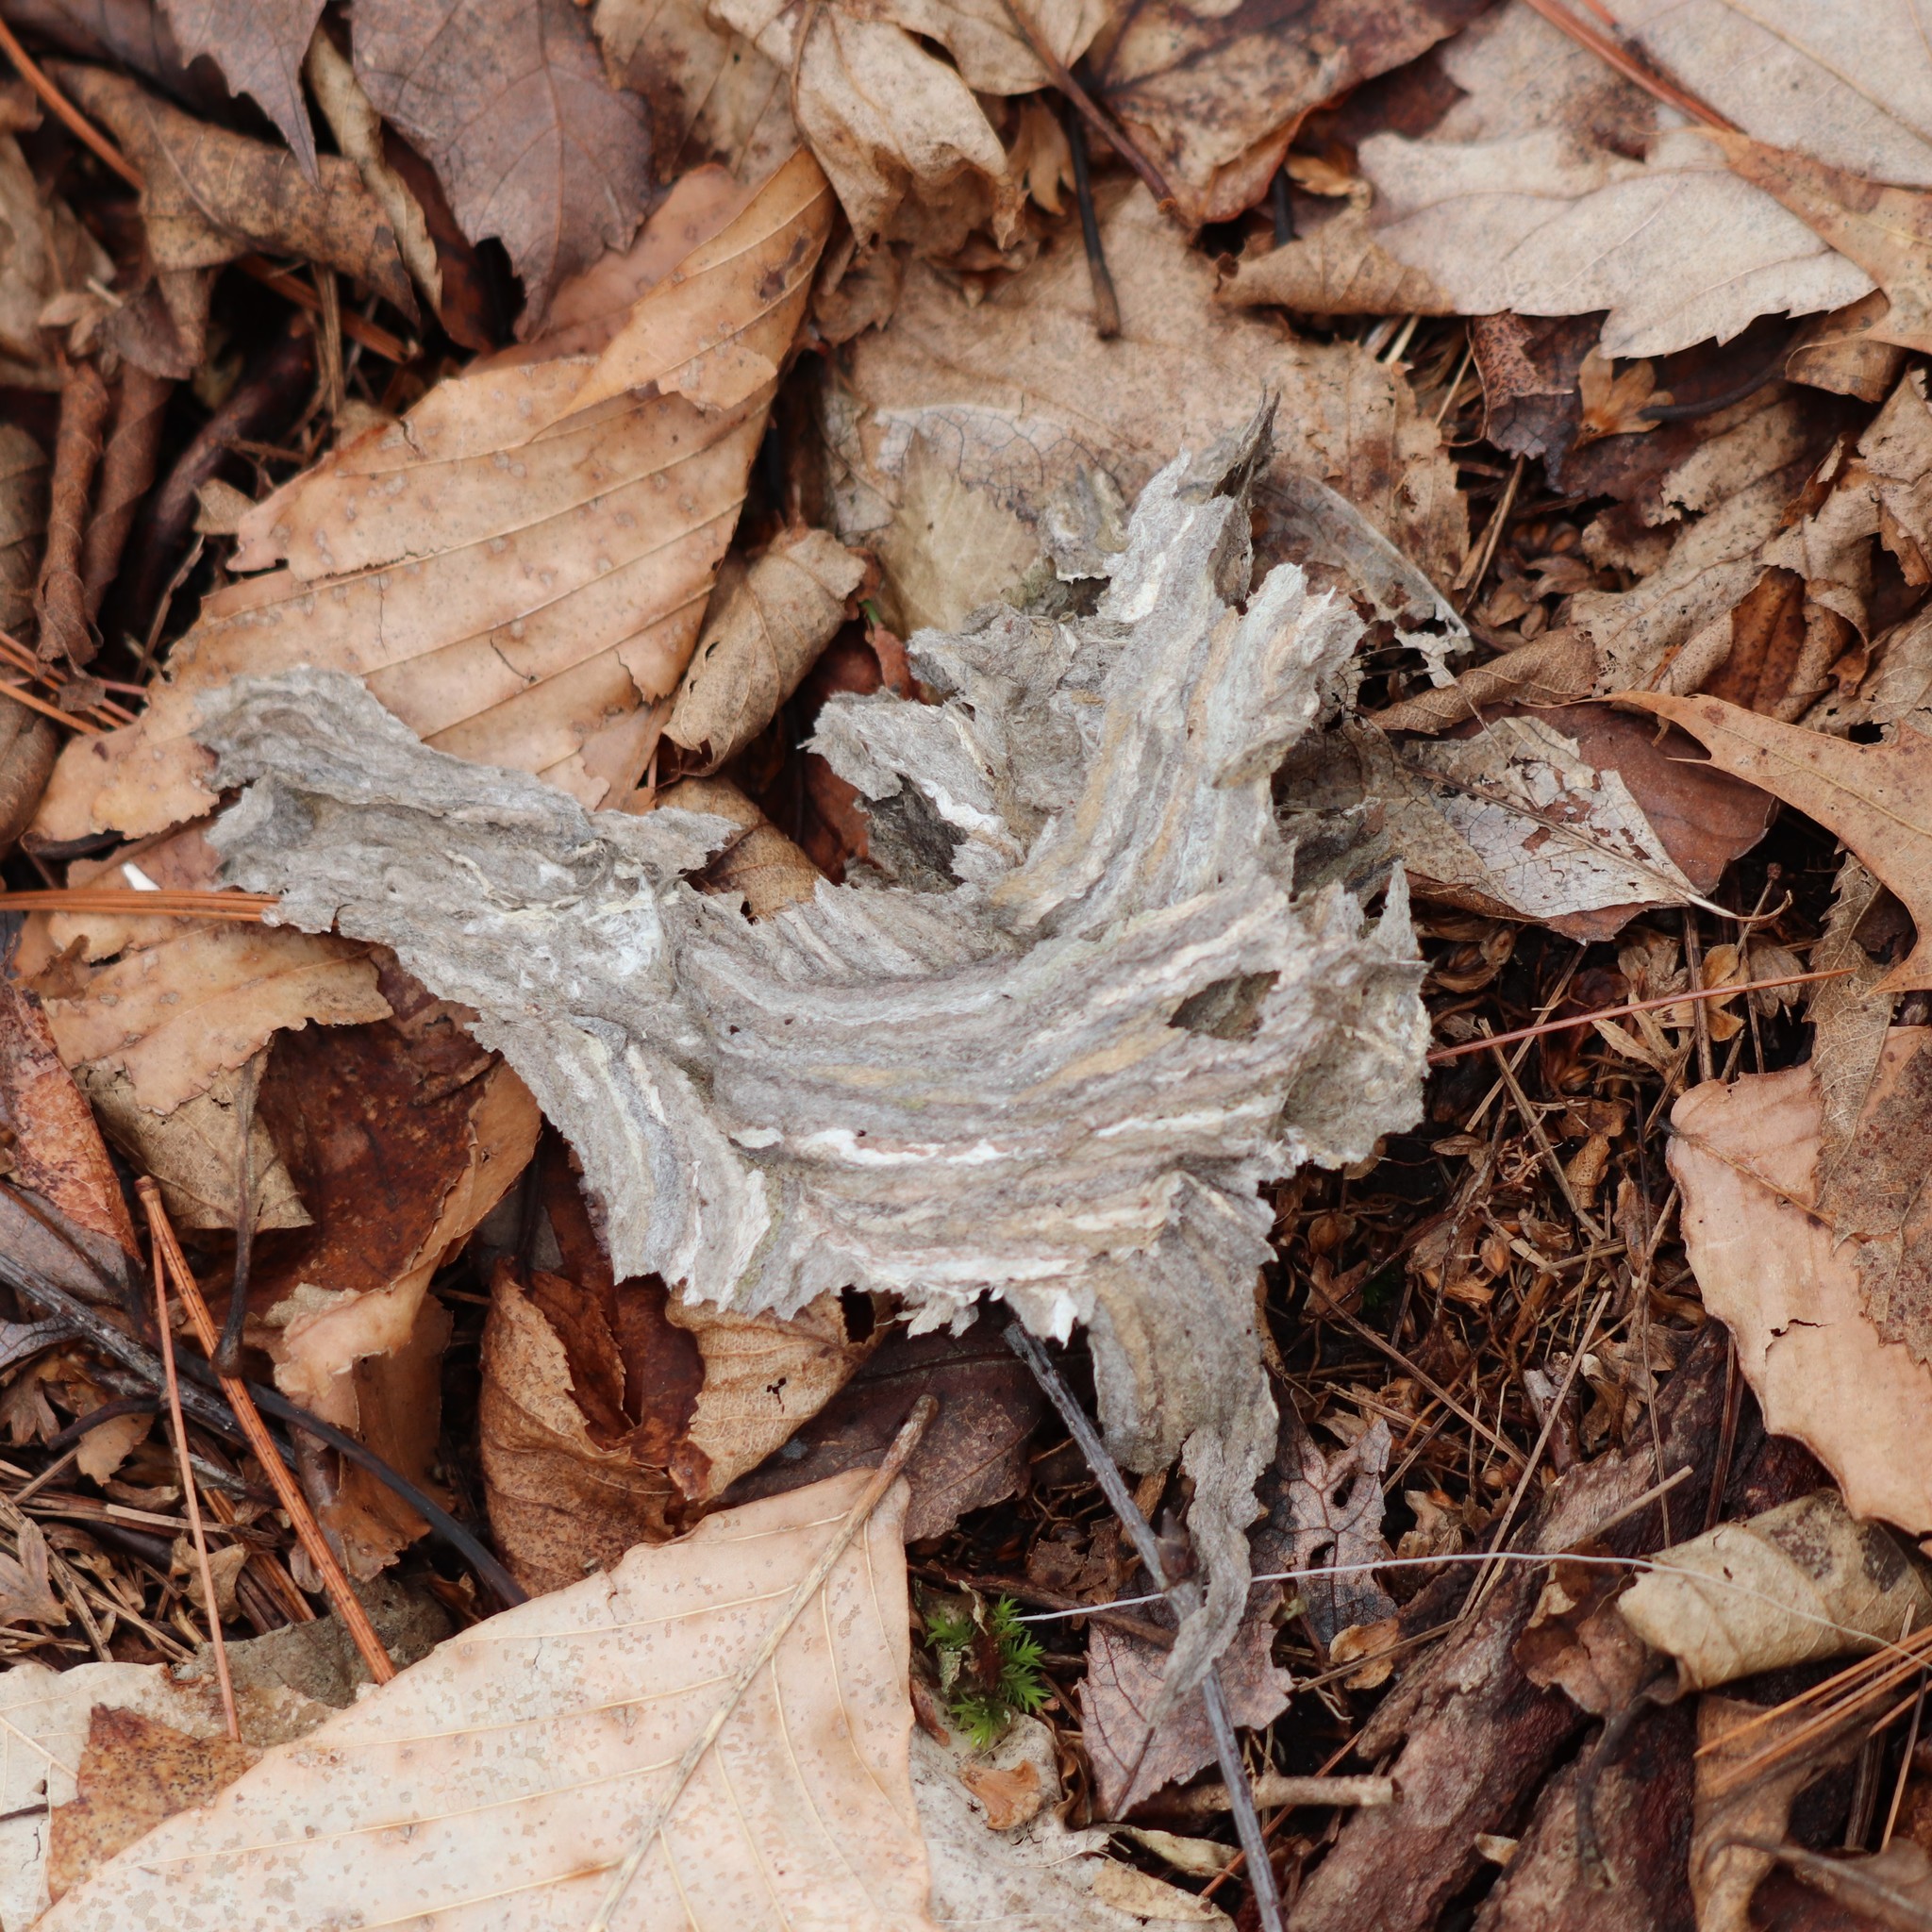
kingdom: Animalia
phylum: Arthropoda
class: Insecta
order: Hymenoptera
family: Vespidae
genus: Dolichovespula
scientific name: Dolichovespula
